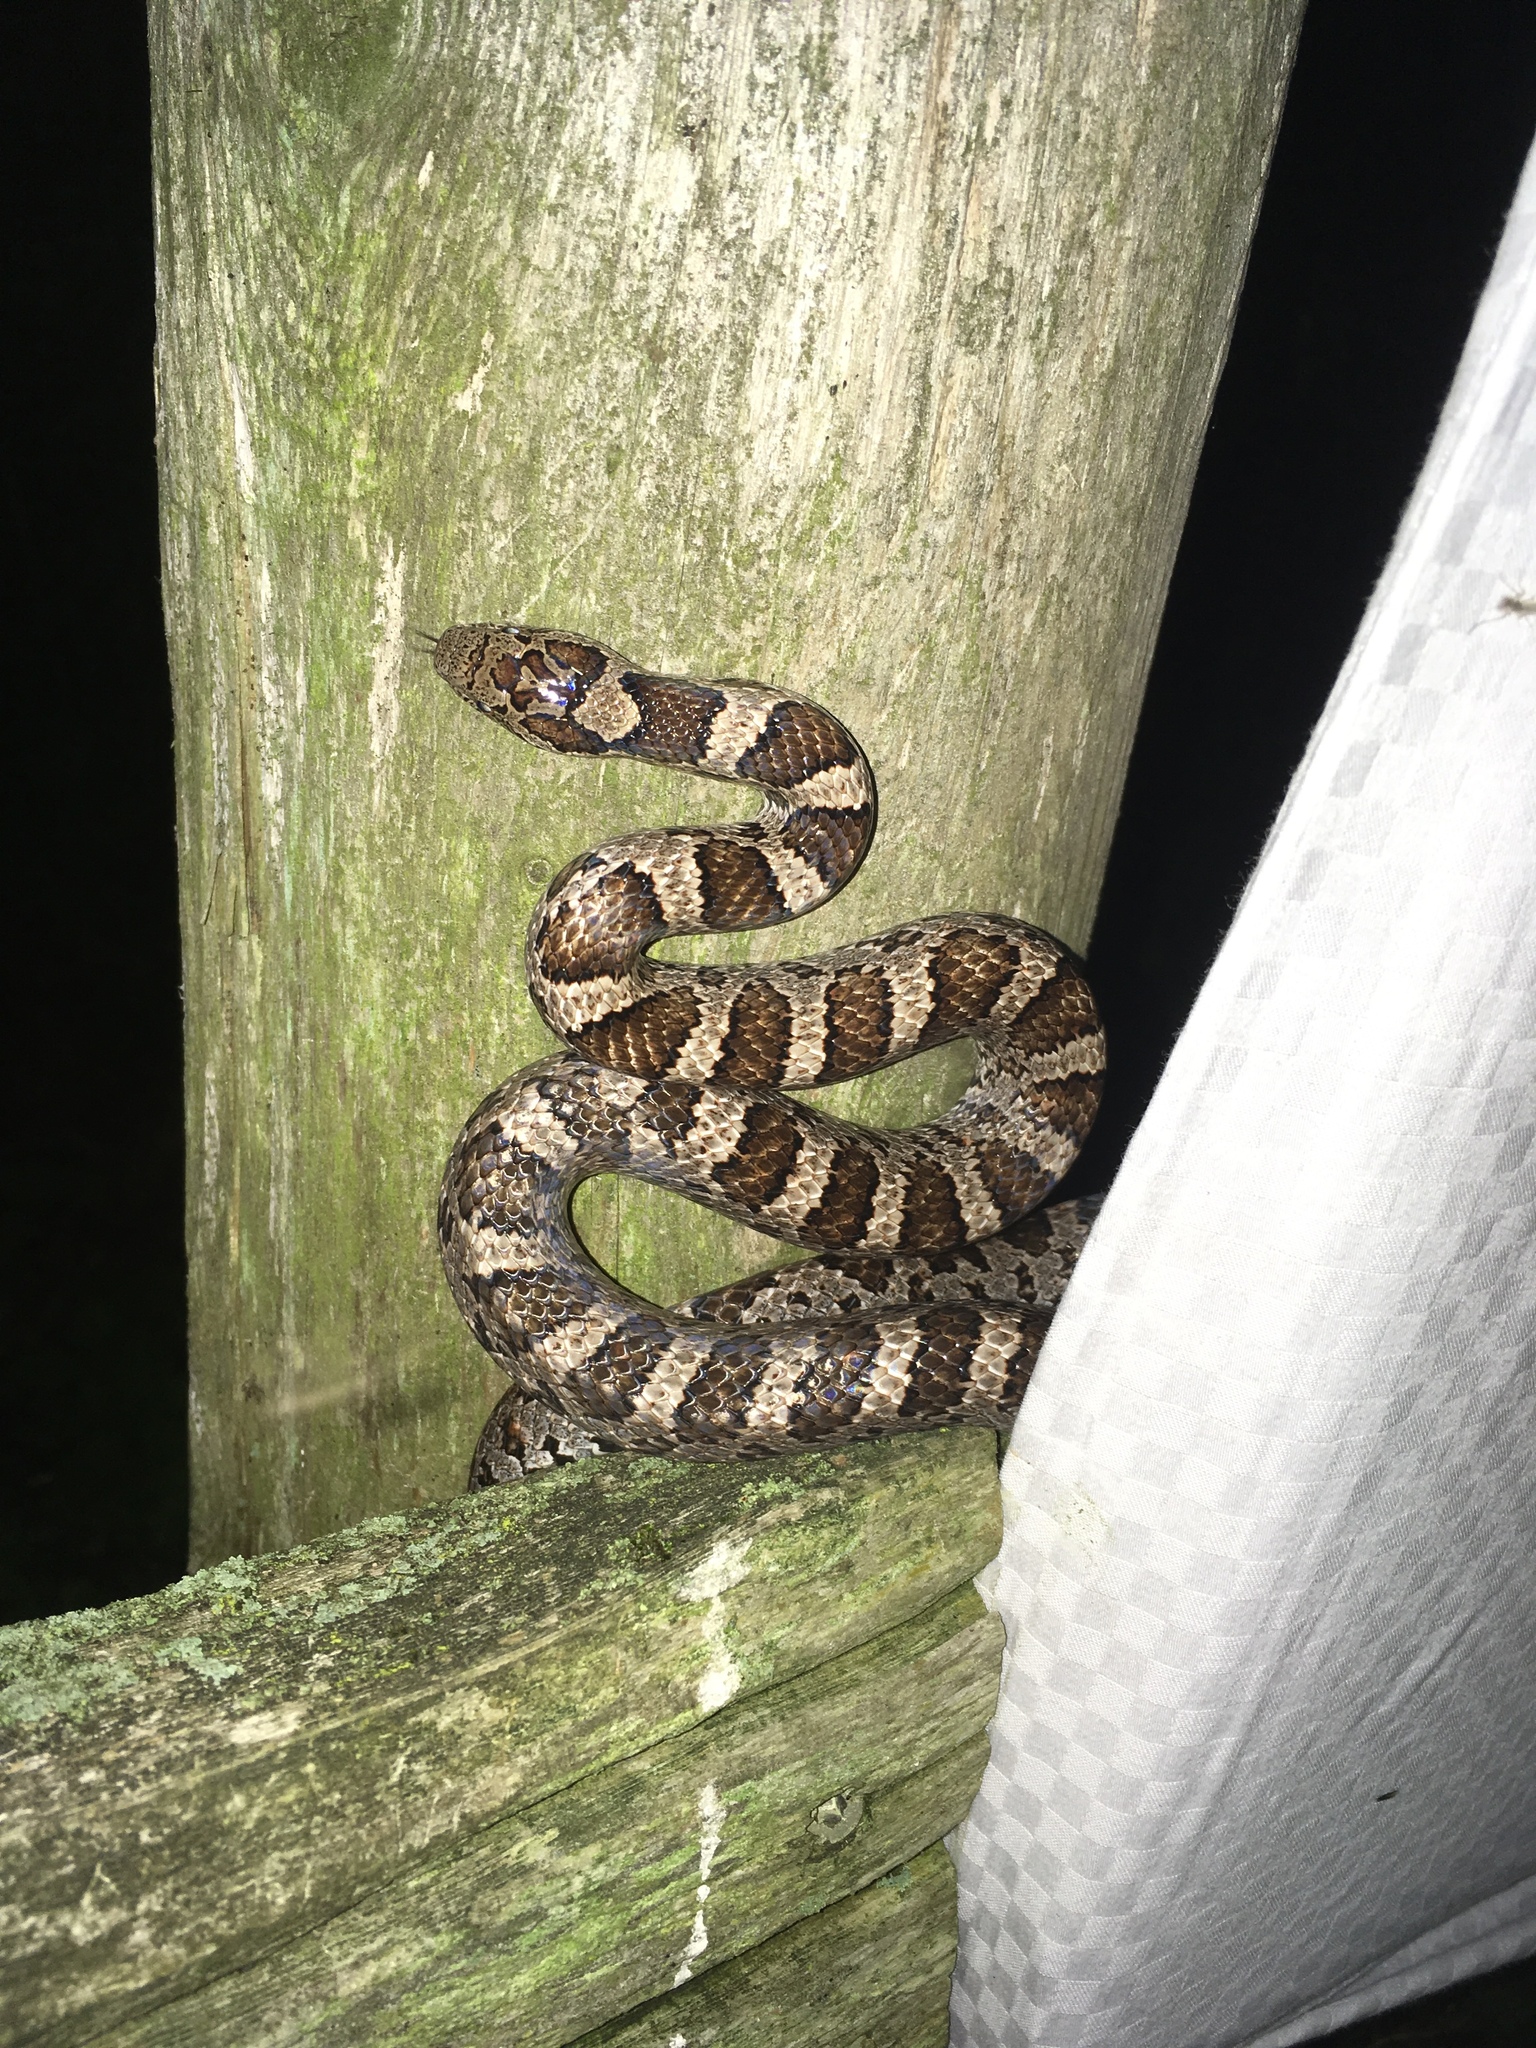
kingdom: Animalia
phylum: Chordata
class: Squamata
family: Colubridae
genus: Lampropeltis
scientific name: Lampropeltis triangulum
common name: Eastern milksnake
